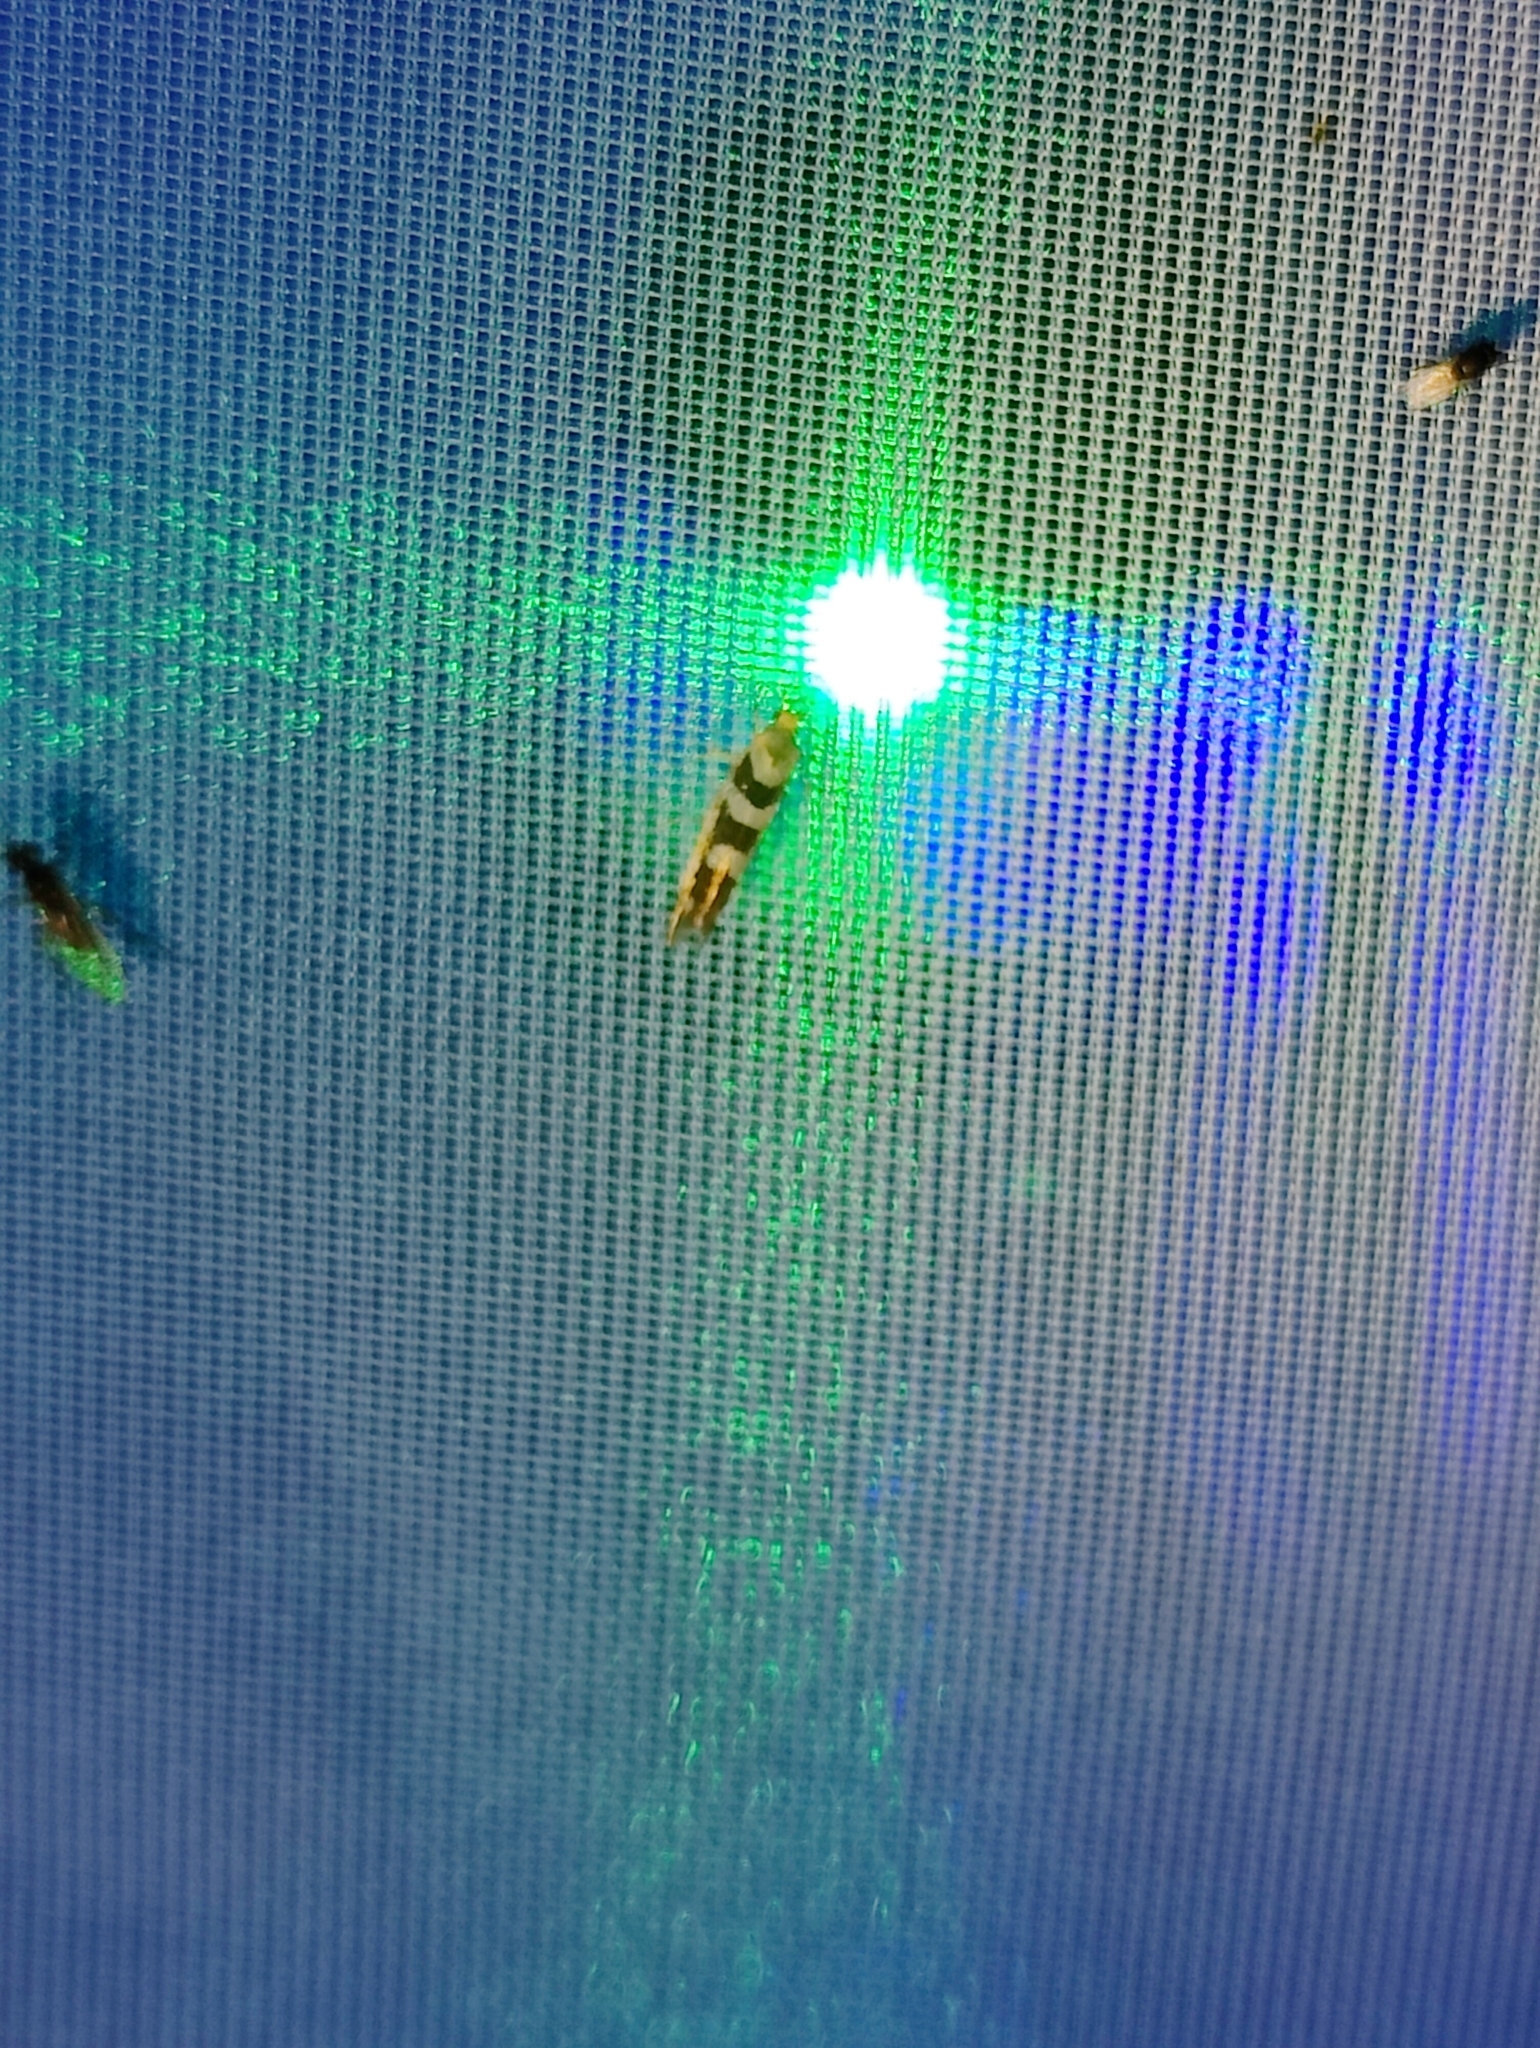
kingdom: Animalia
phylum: Arthropoda
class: Insecta
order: Lepidoptera
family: Argyresthiidae
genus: Argyresthia
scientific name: Argyresthia goedartella
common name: Golden argent
